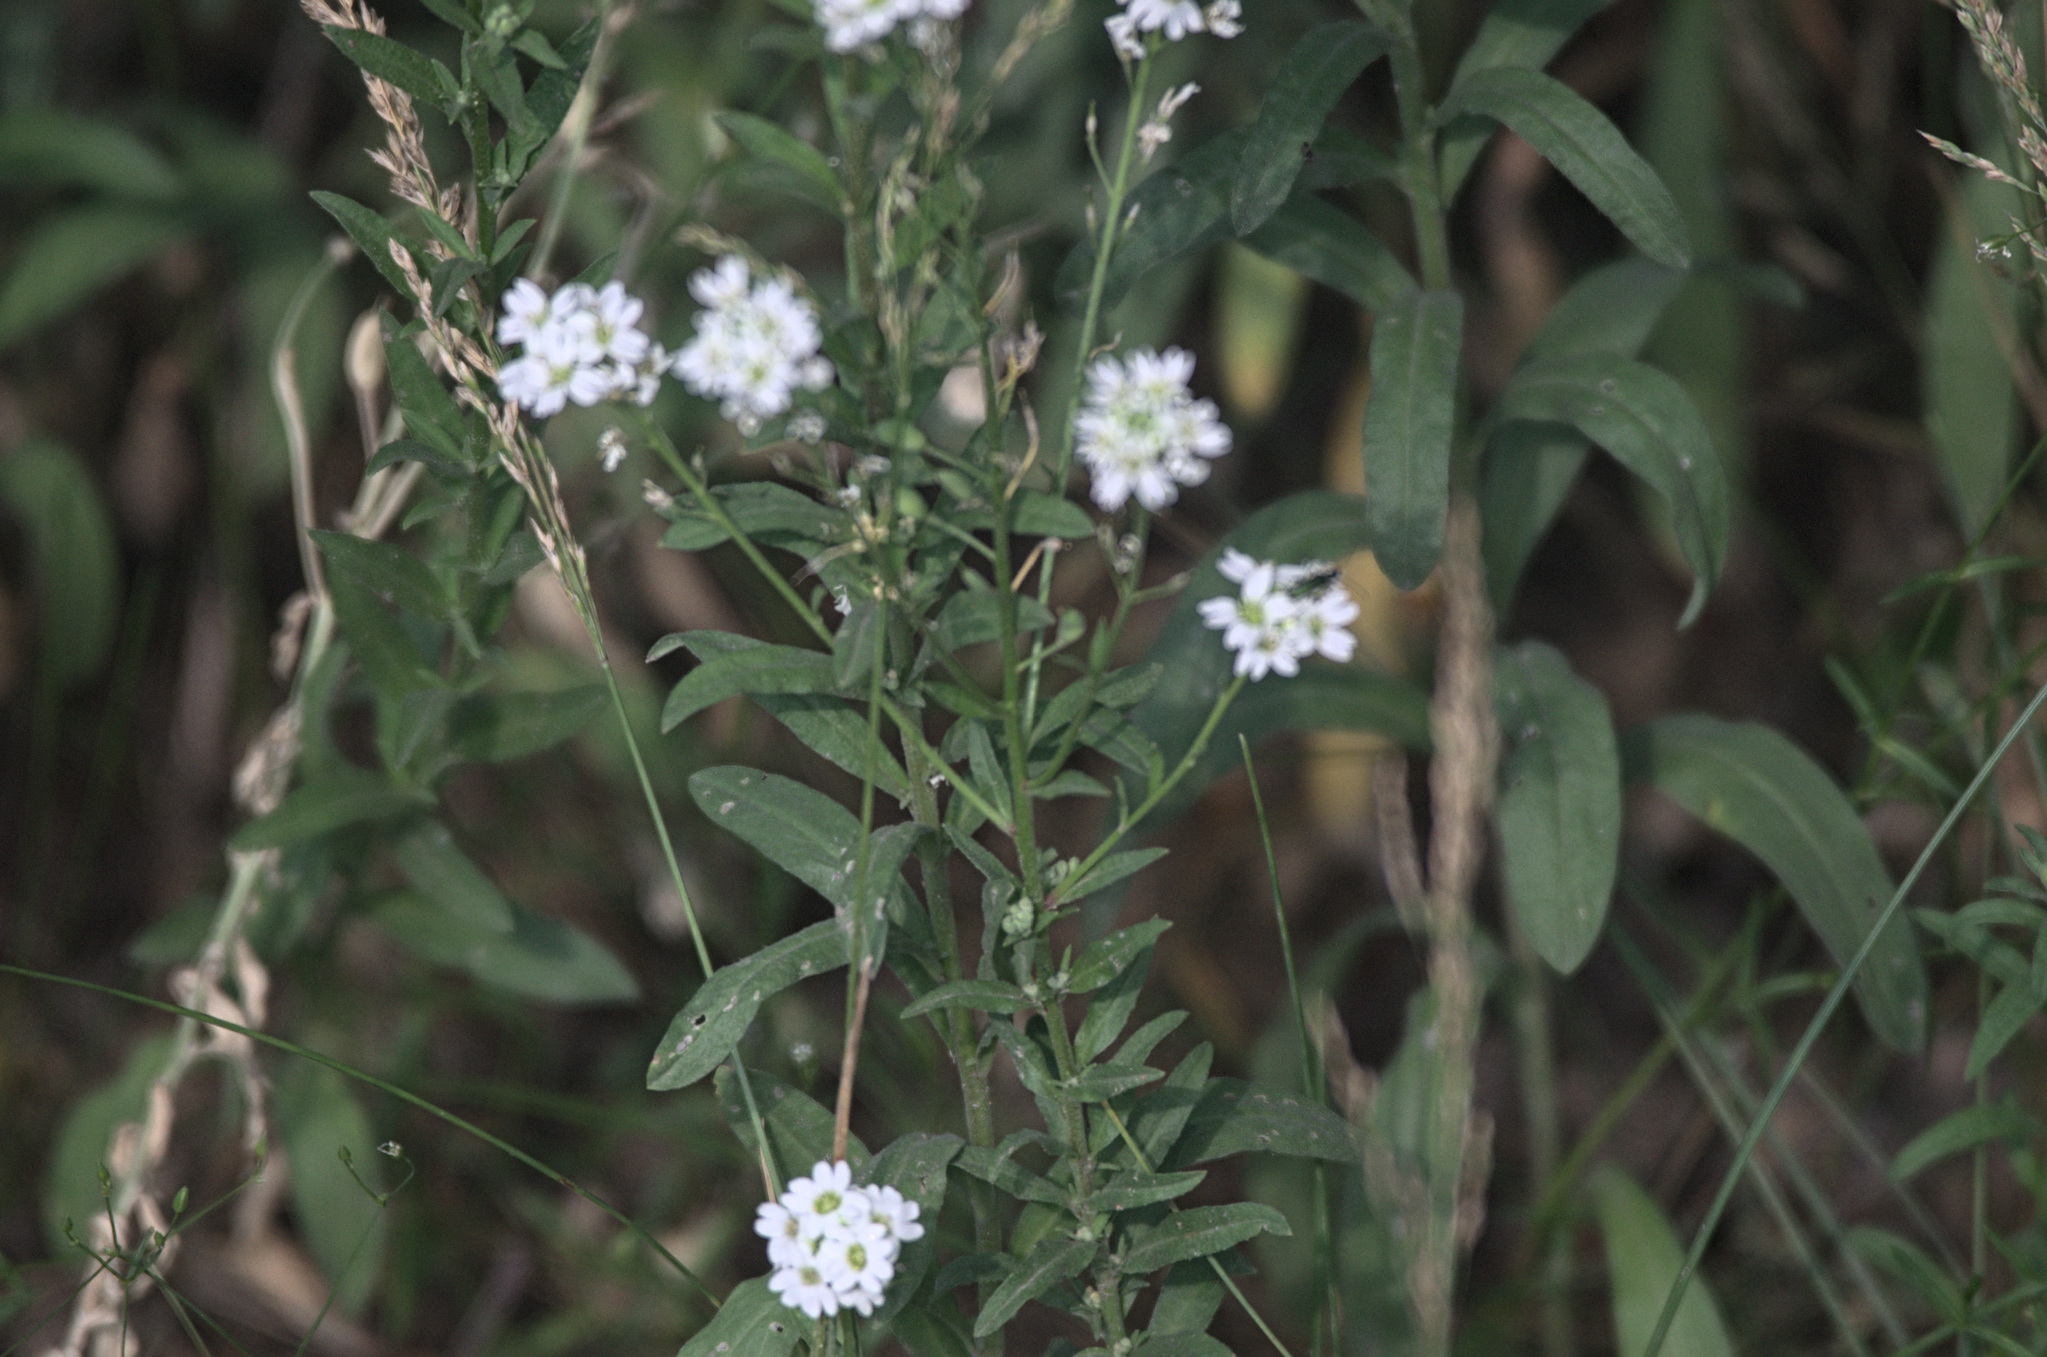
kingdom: Plantae
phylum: Tracheophyta
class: Magnoliopsida
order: Brassicales
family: Brassicaceae
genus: Berteroa
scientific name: Berteroa incana
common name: Hoary alison
